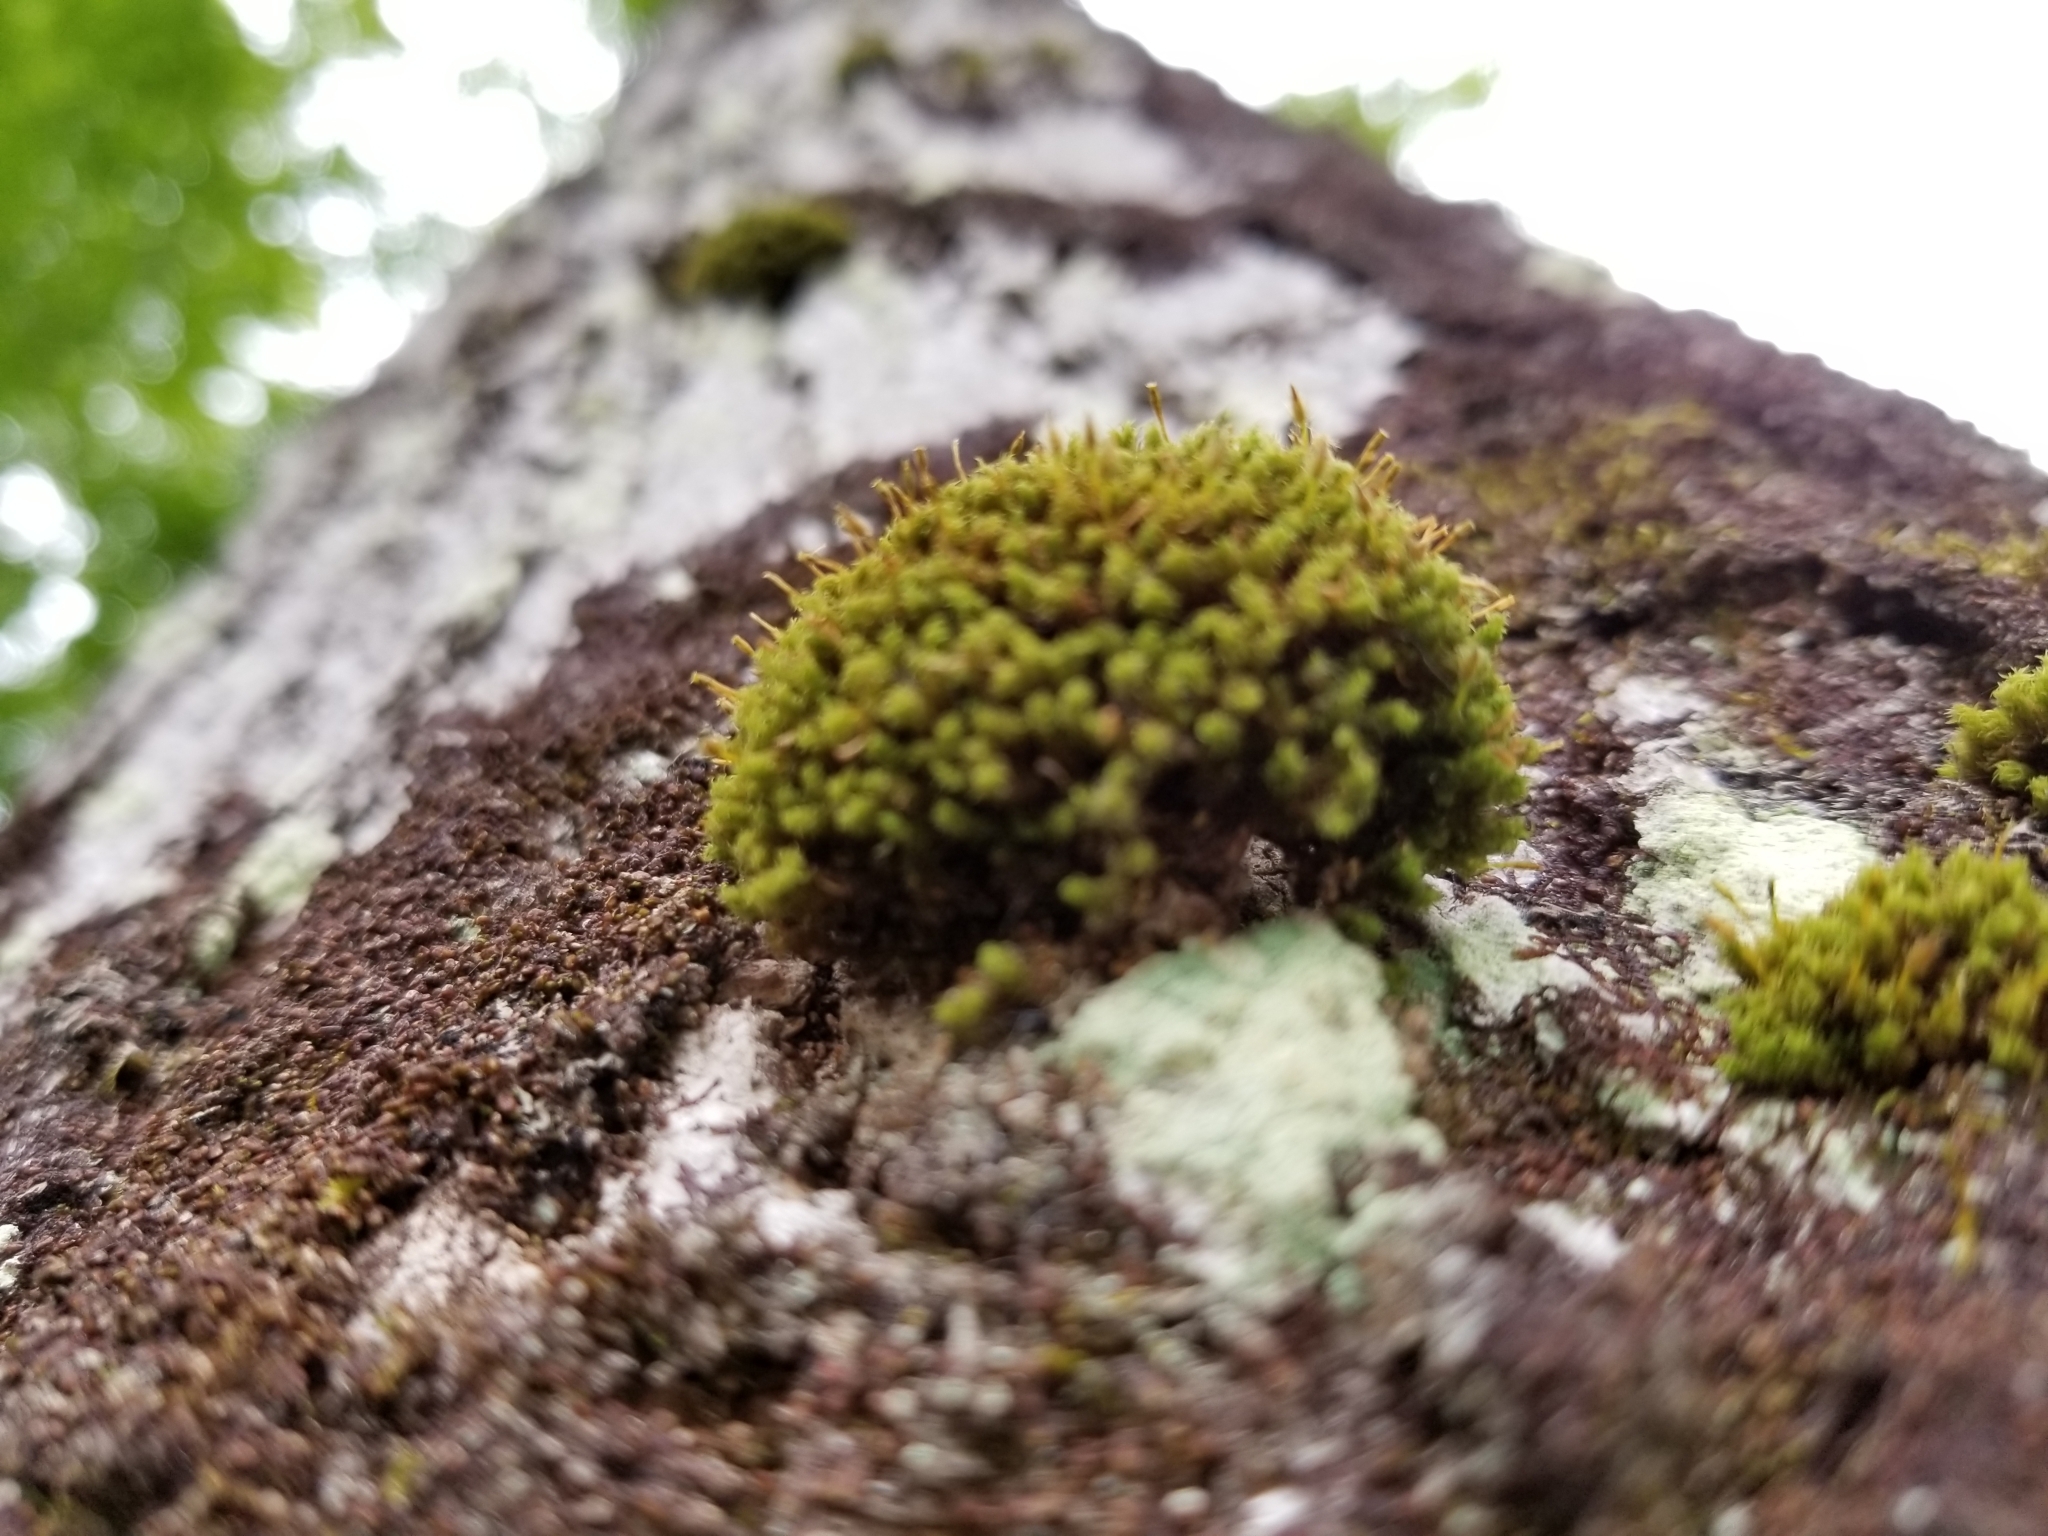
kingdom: Plantae
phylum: Bryophyta
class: Bryopsida
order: Orthotrichales
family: Orthotrichaceae
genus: Ulota
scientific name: Ulota crispula
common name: Crisped pincushion
